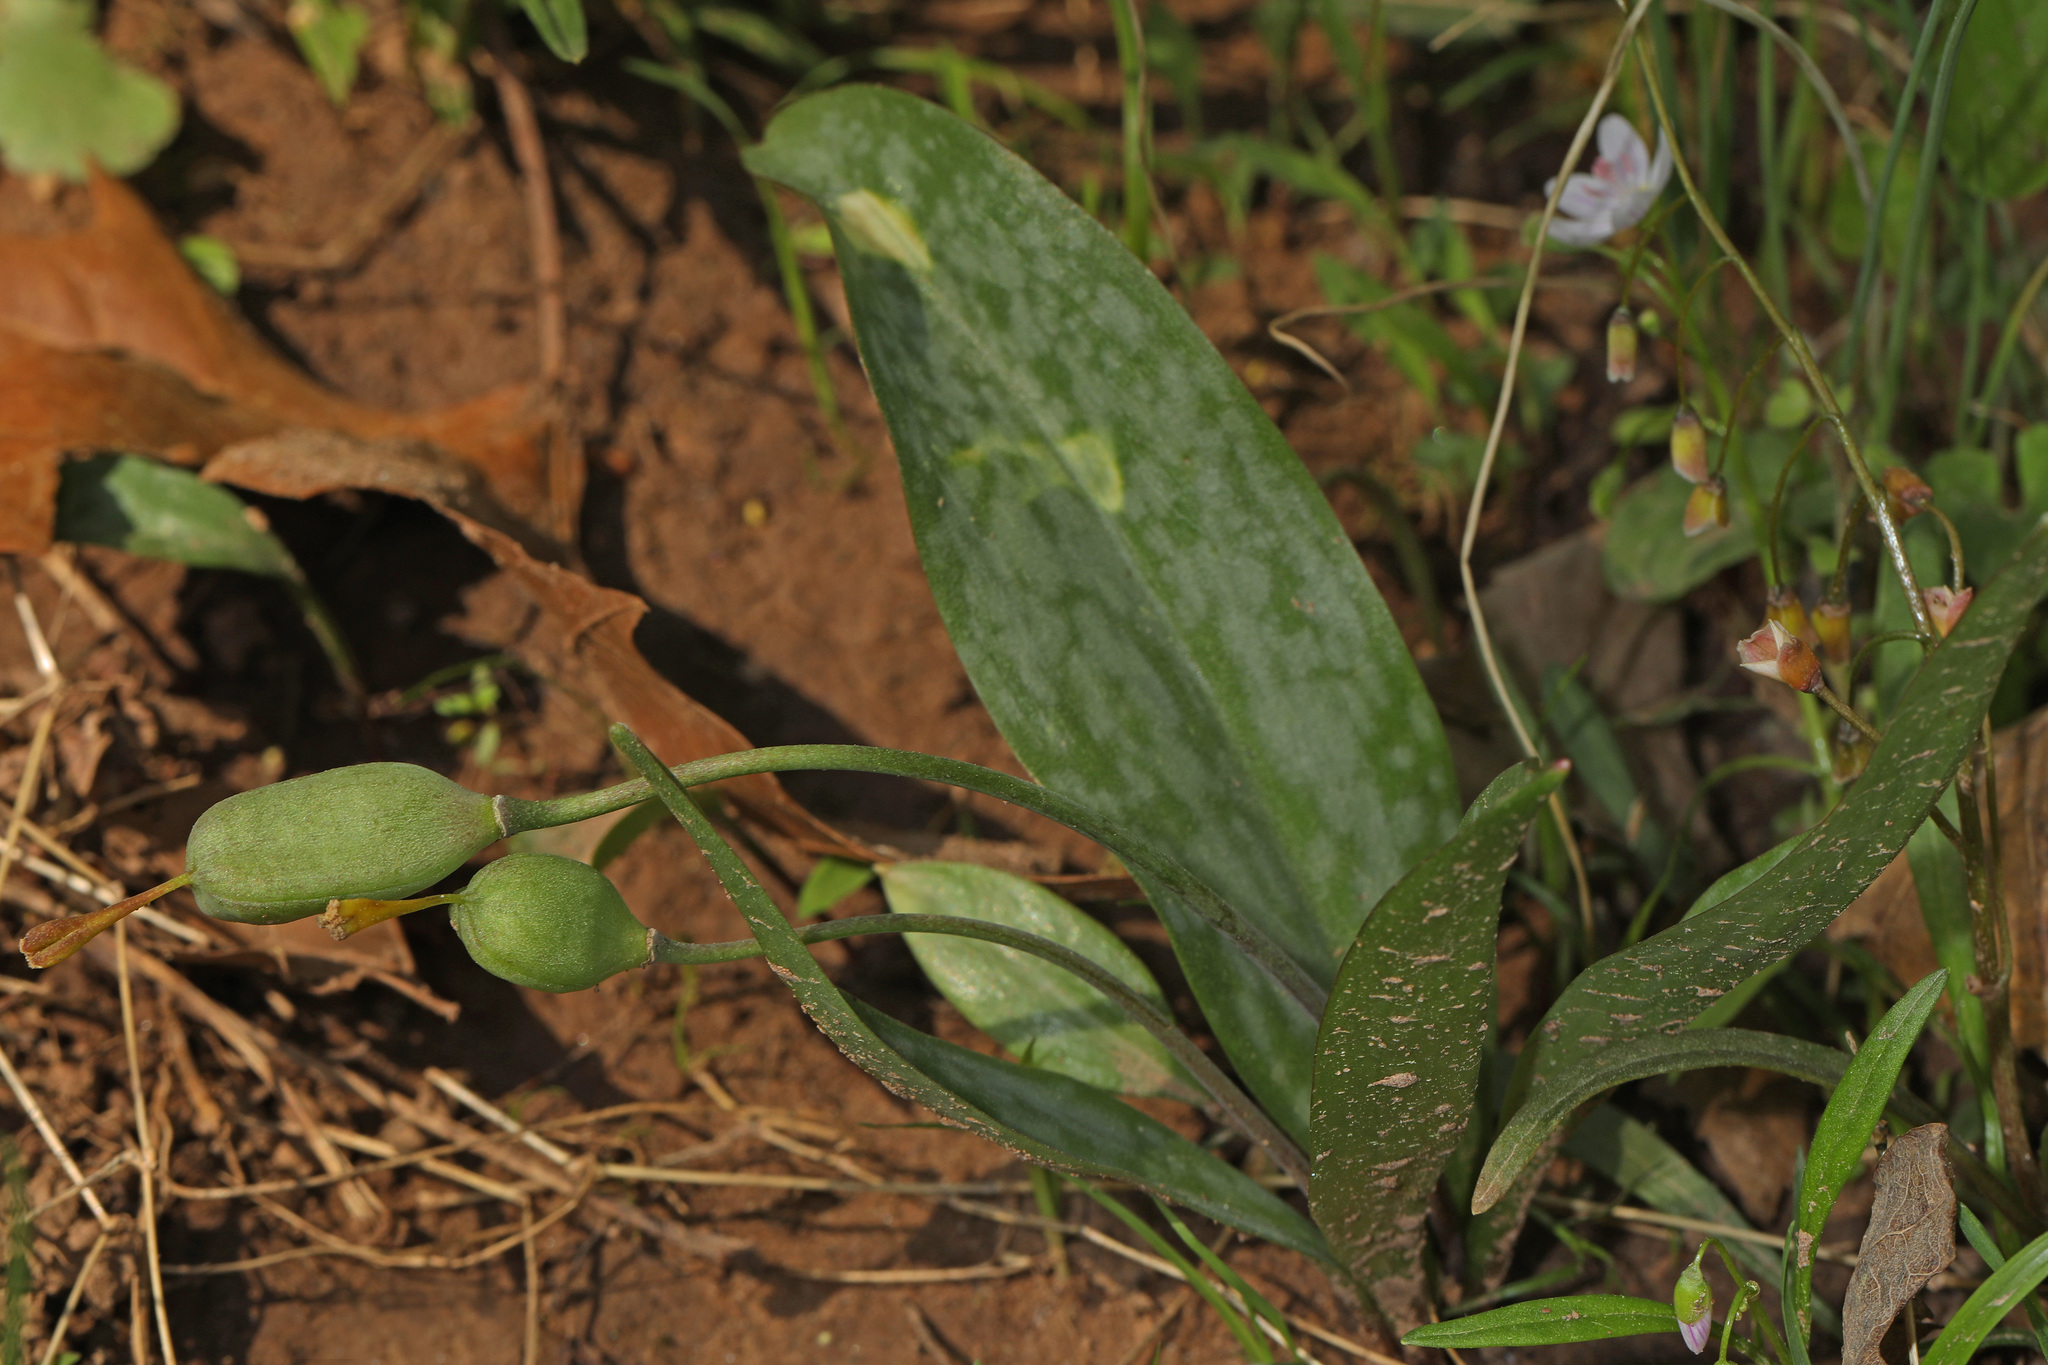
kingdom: Plantae
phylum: Tracheophyta
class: Liliopsida
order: Liliales
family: Liliaceae
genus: Erythronium
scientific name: Erythronium americanum
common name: Yellow adder's-tongue
